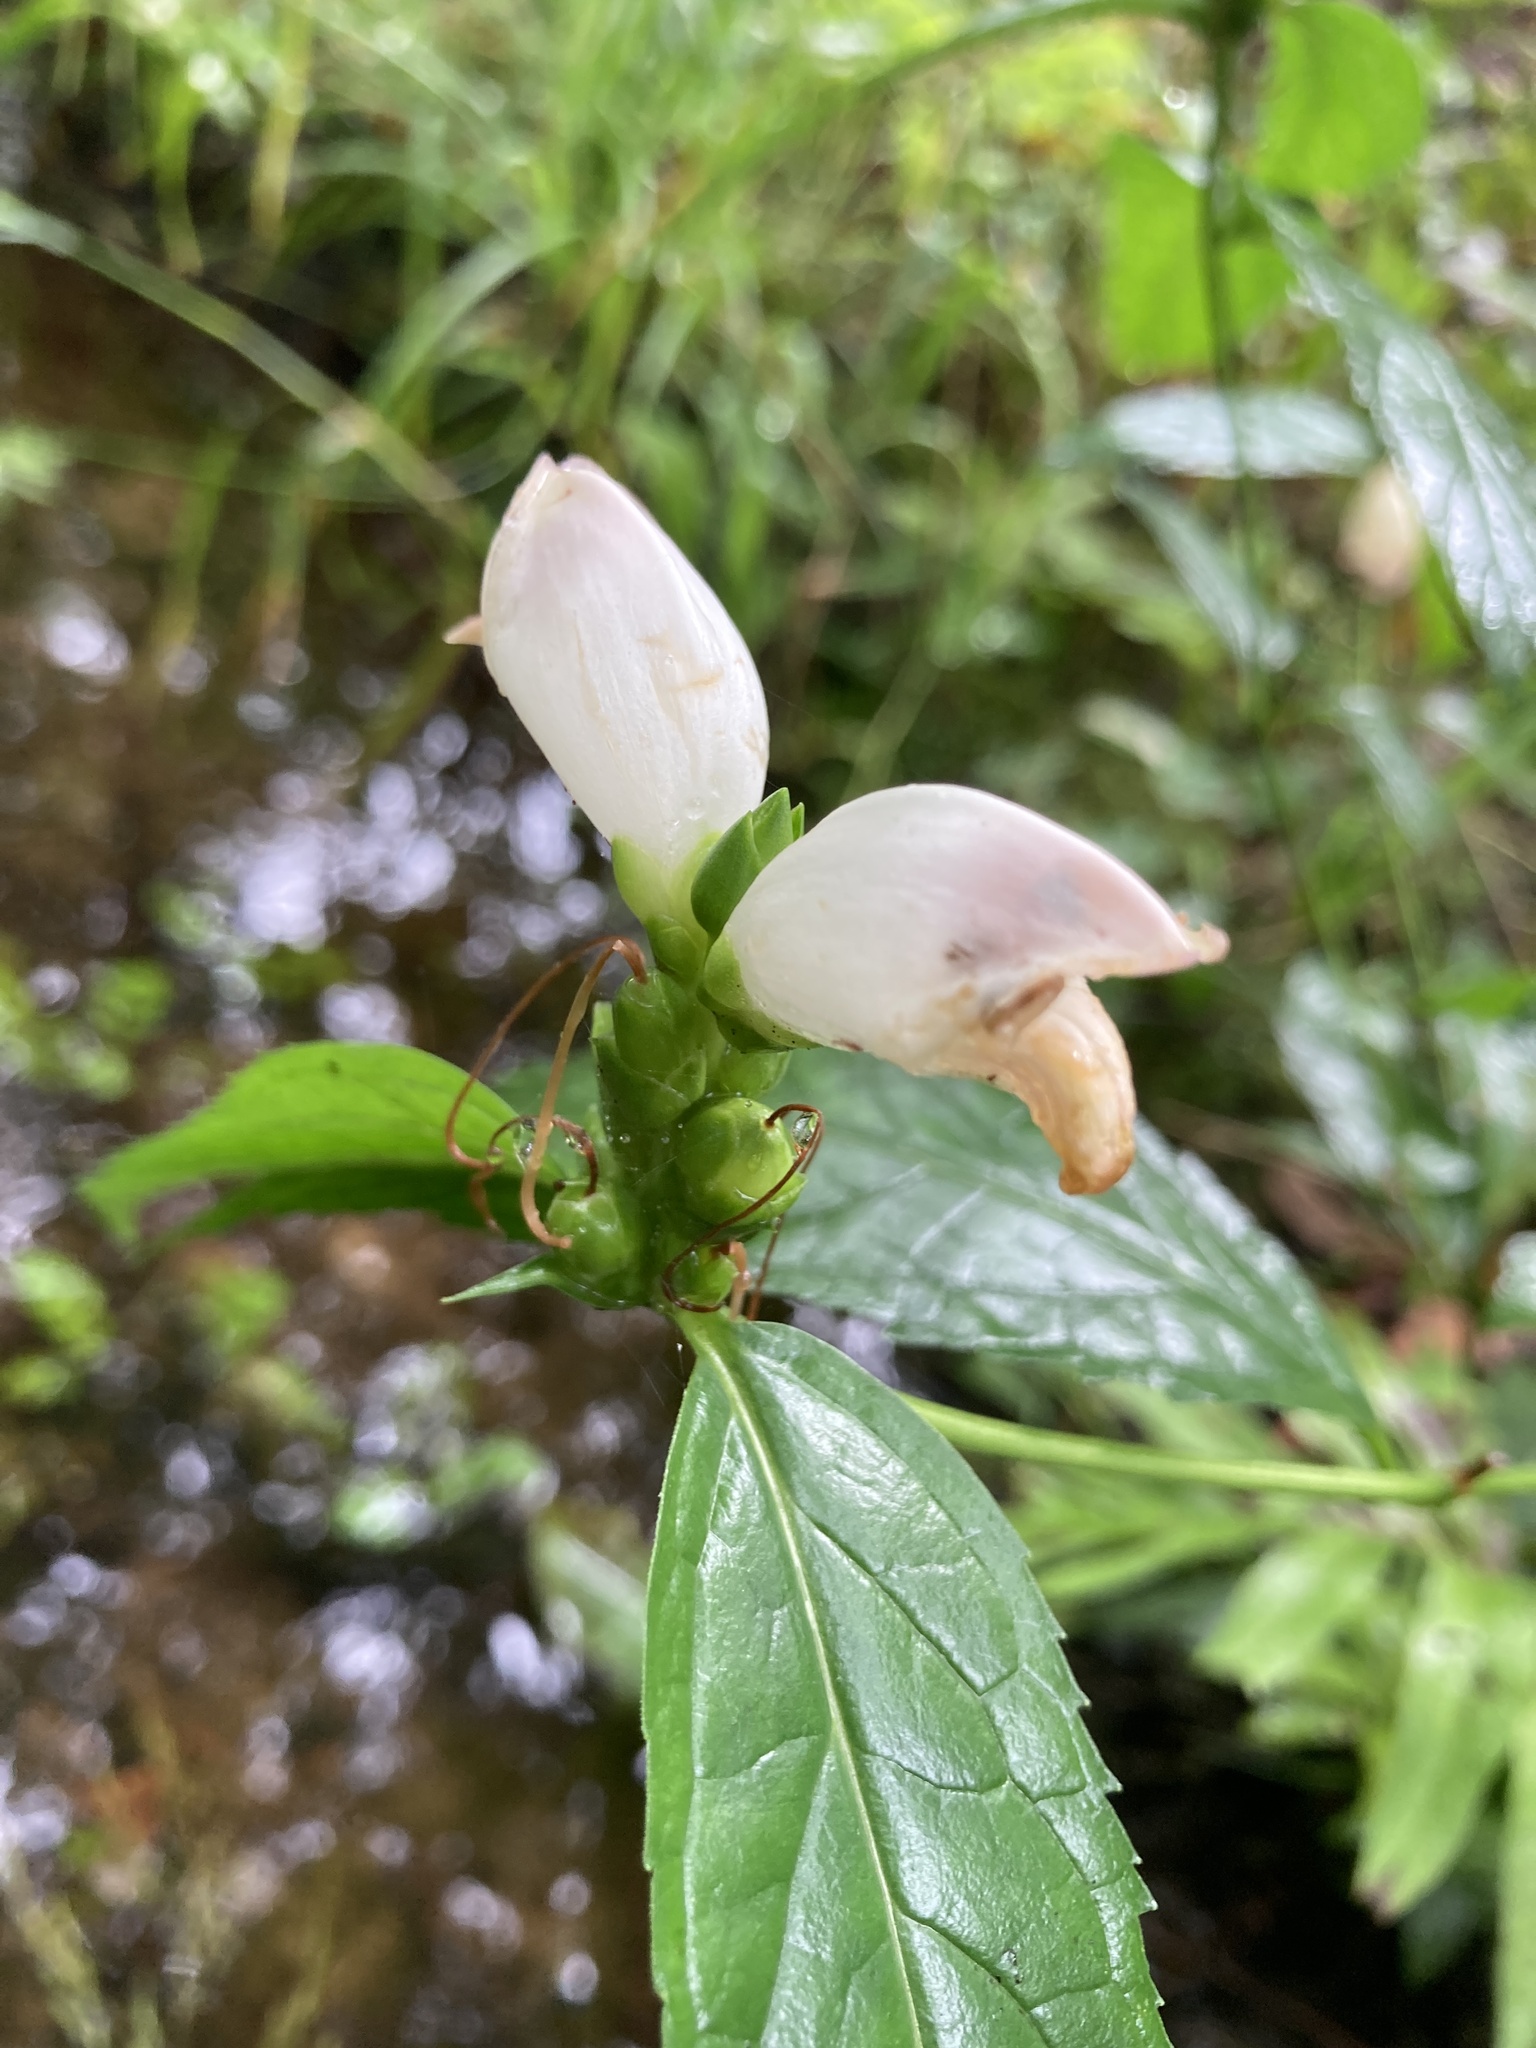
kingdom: Plantae
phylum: Tracheophyta
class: Magnoliopsida
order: Lamiales
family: Plantaginaceae
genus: Chelone
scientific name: Chelone glabra
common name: Snakehead
